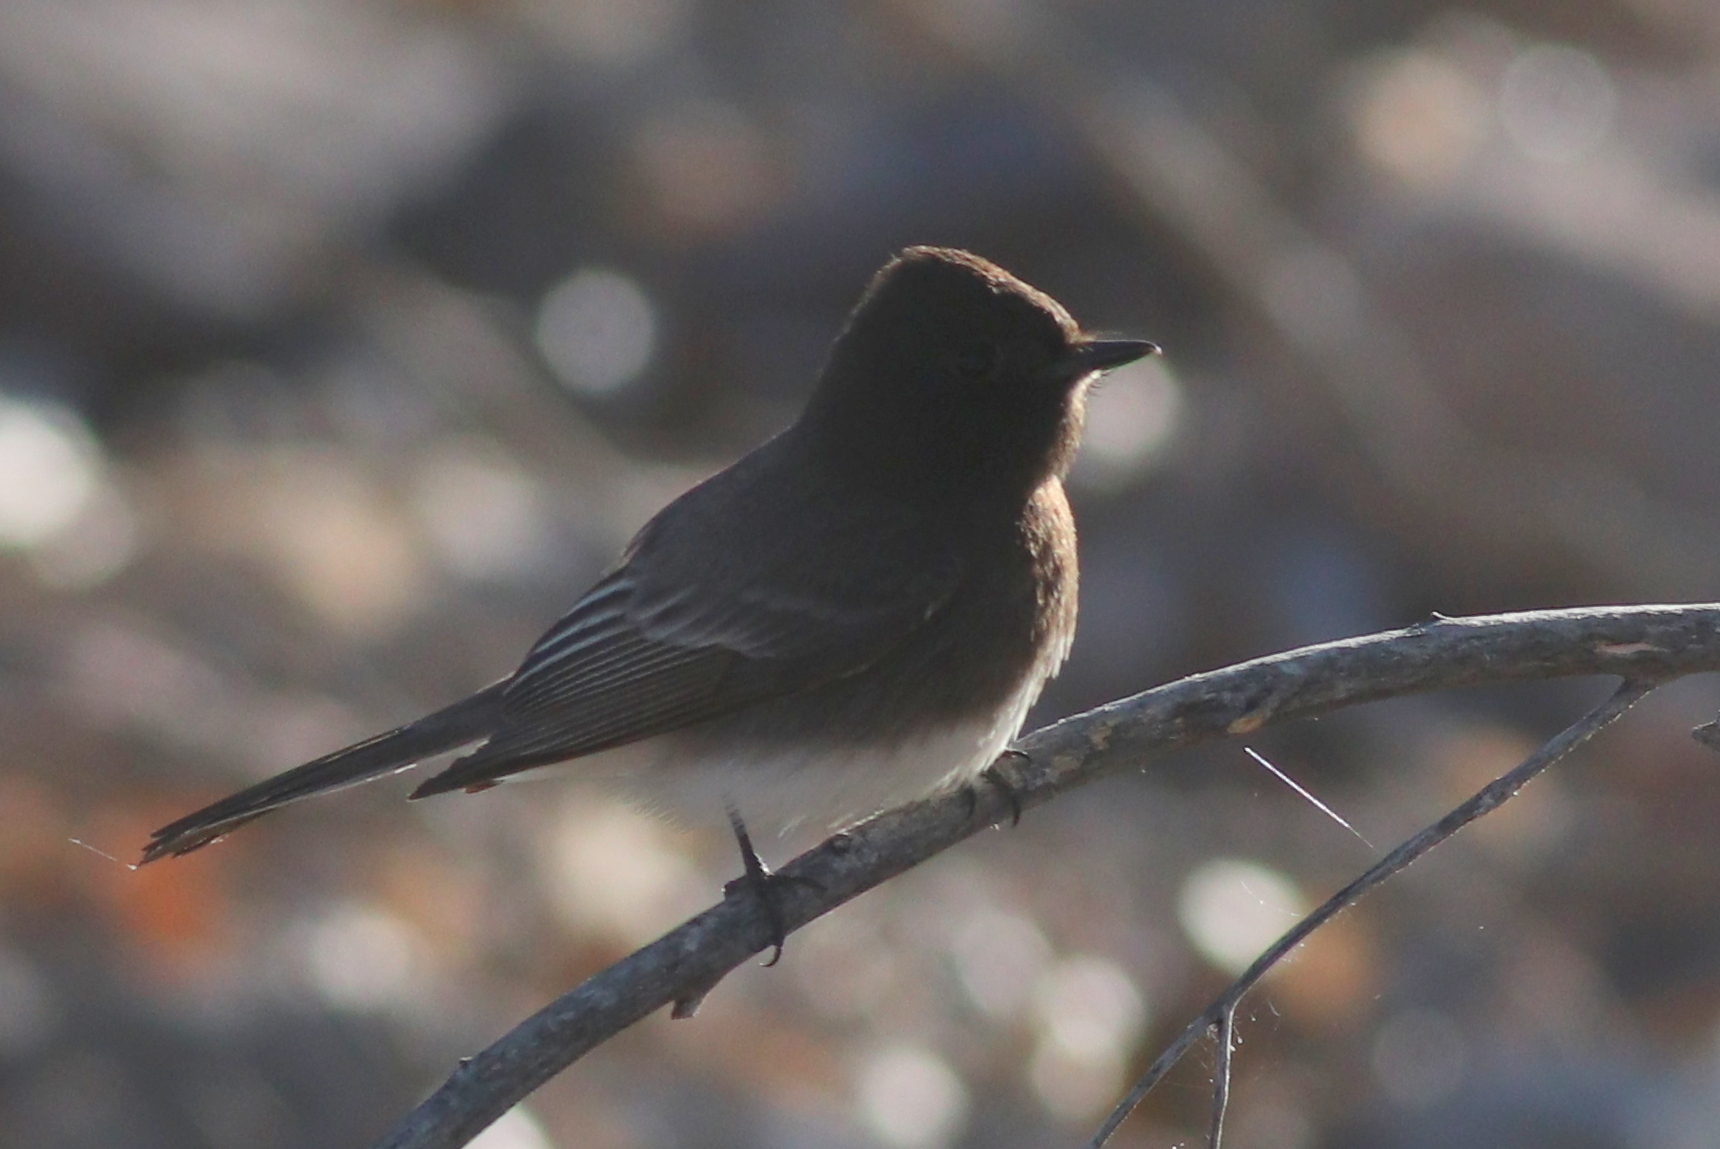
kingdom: Animalia
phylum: Chordata
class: Aves
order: Passeriformes
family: Tyrannidae
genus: Sayornis
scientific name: Sayornis nigricans
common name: Black phoebe
